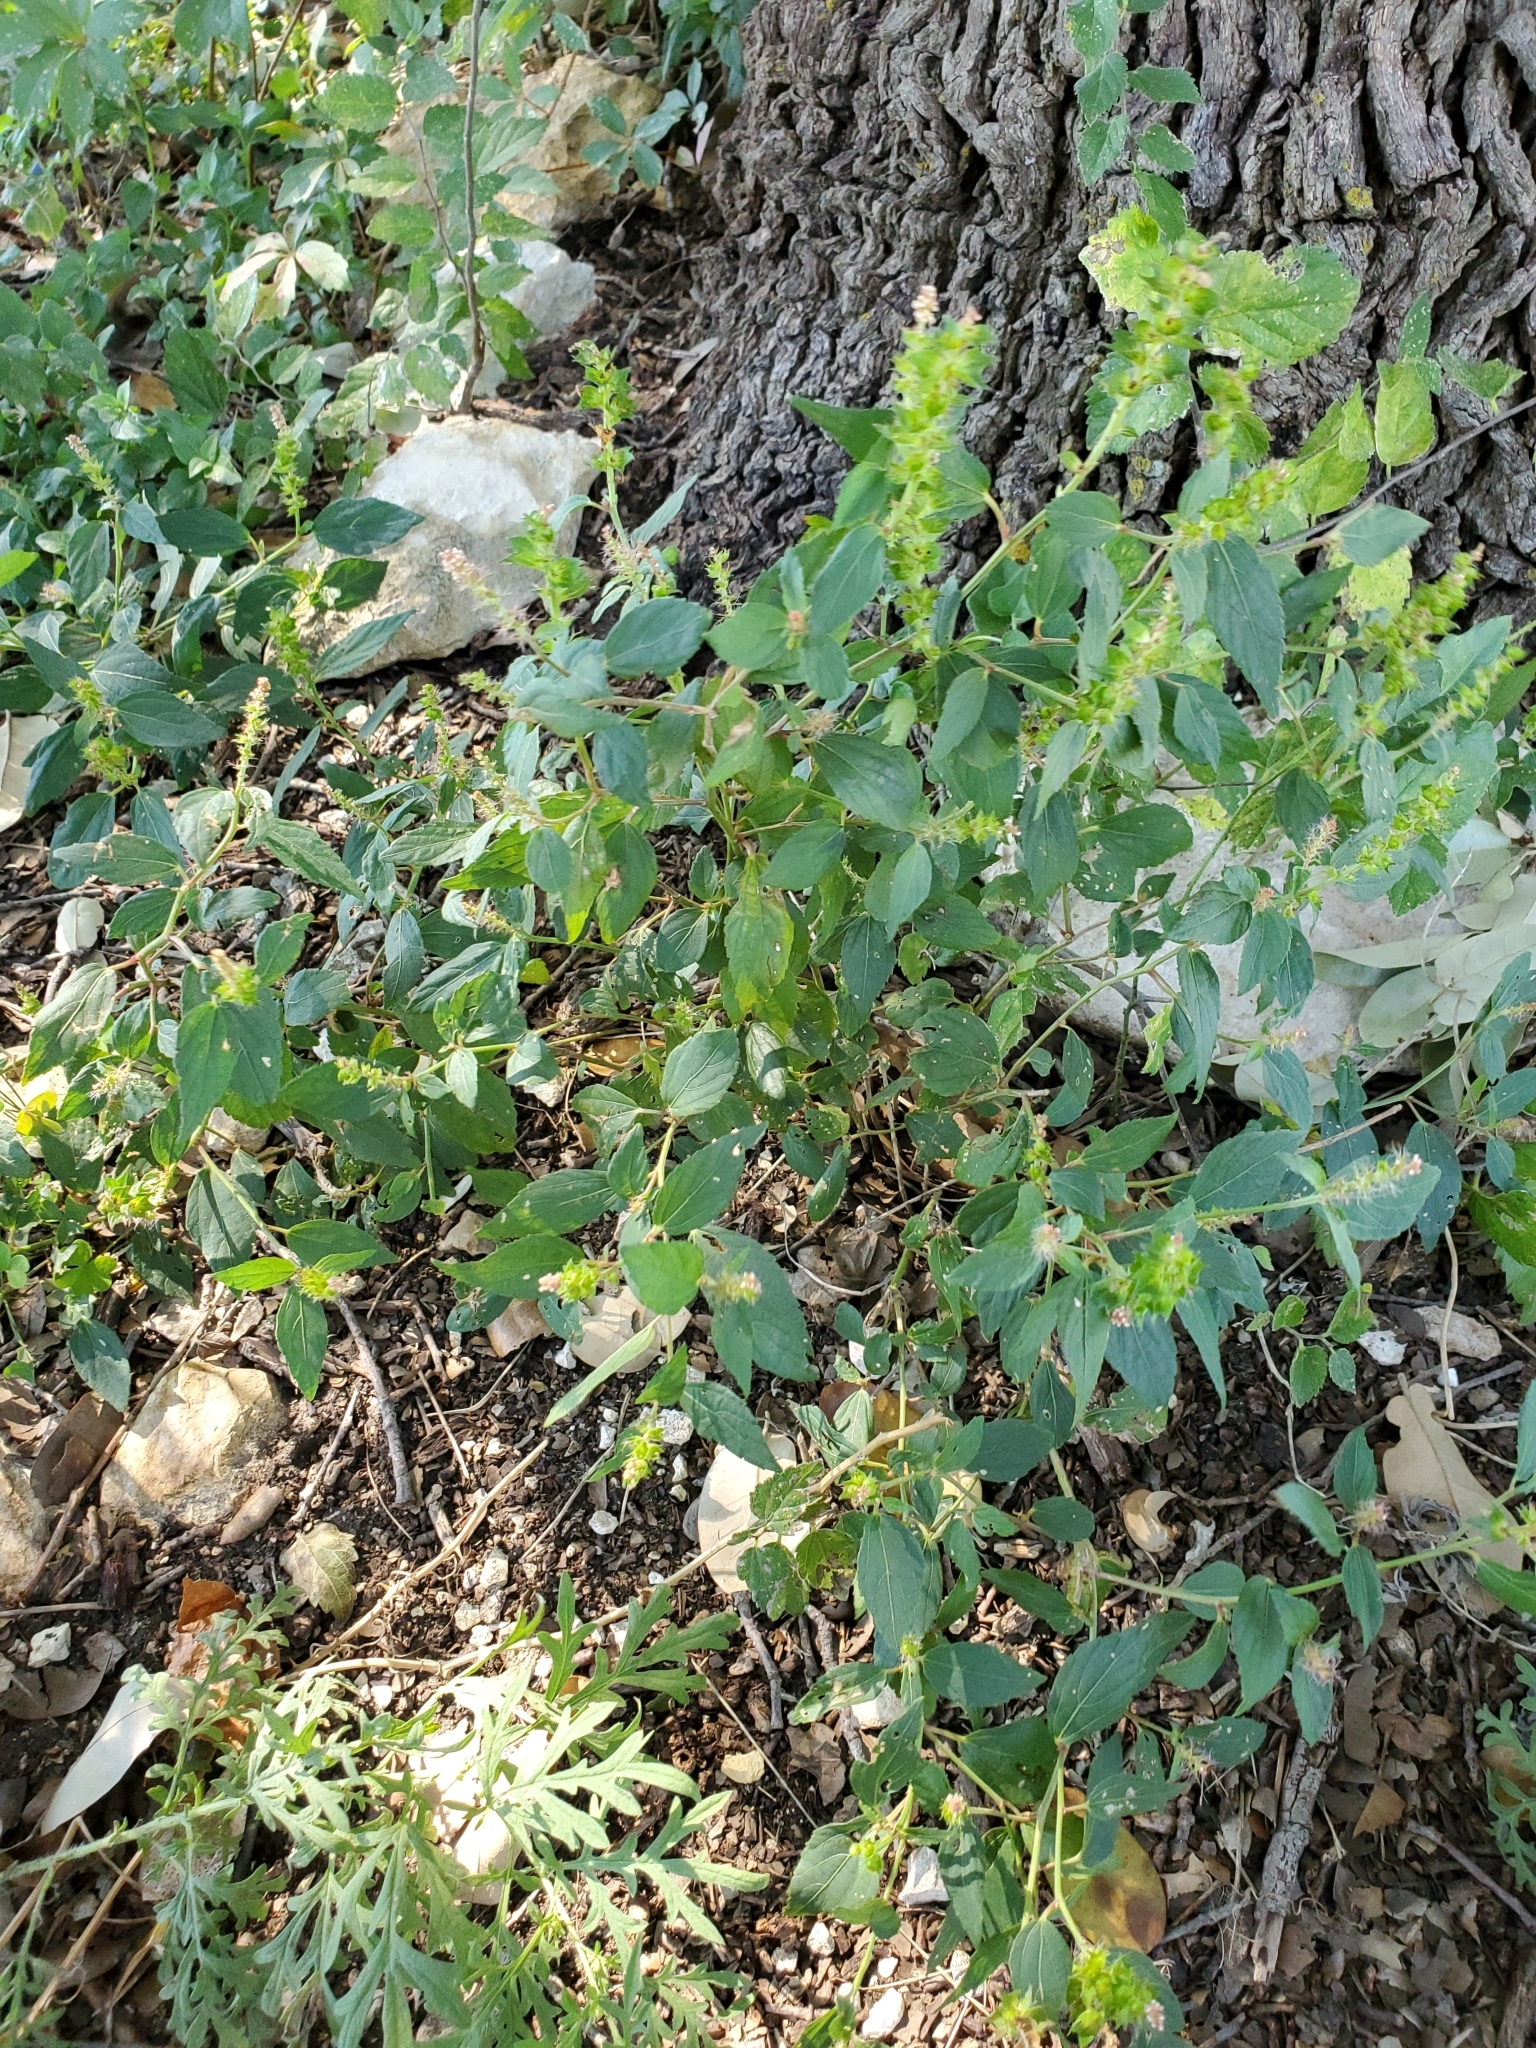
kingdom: Plantae
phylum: Tracheophyta
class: Magnoliopsida
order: Malpighiales
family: Euphorbiaceae
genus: Acalypha
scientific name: Acalypha phleoides
